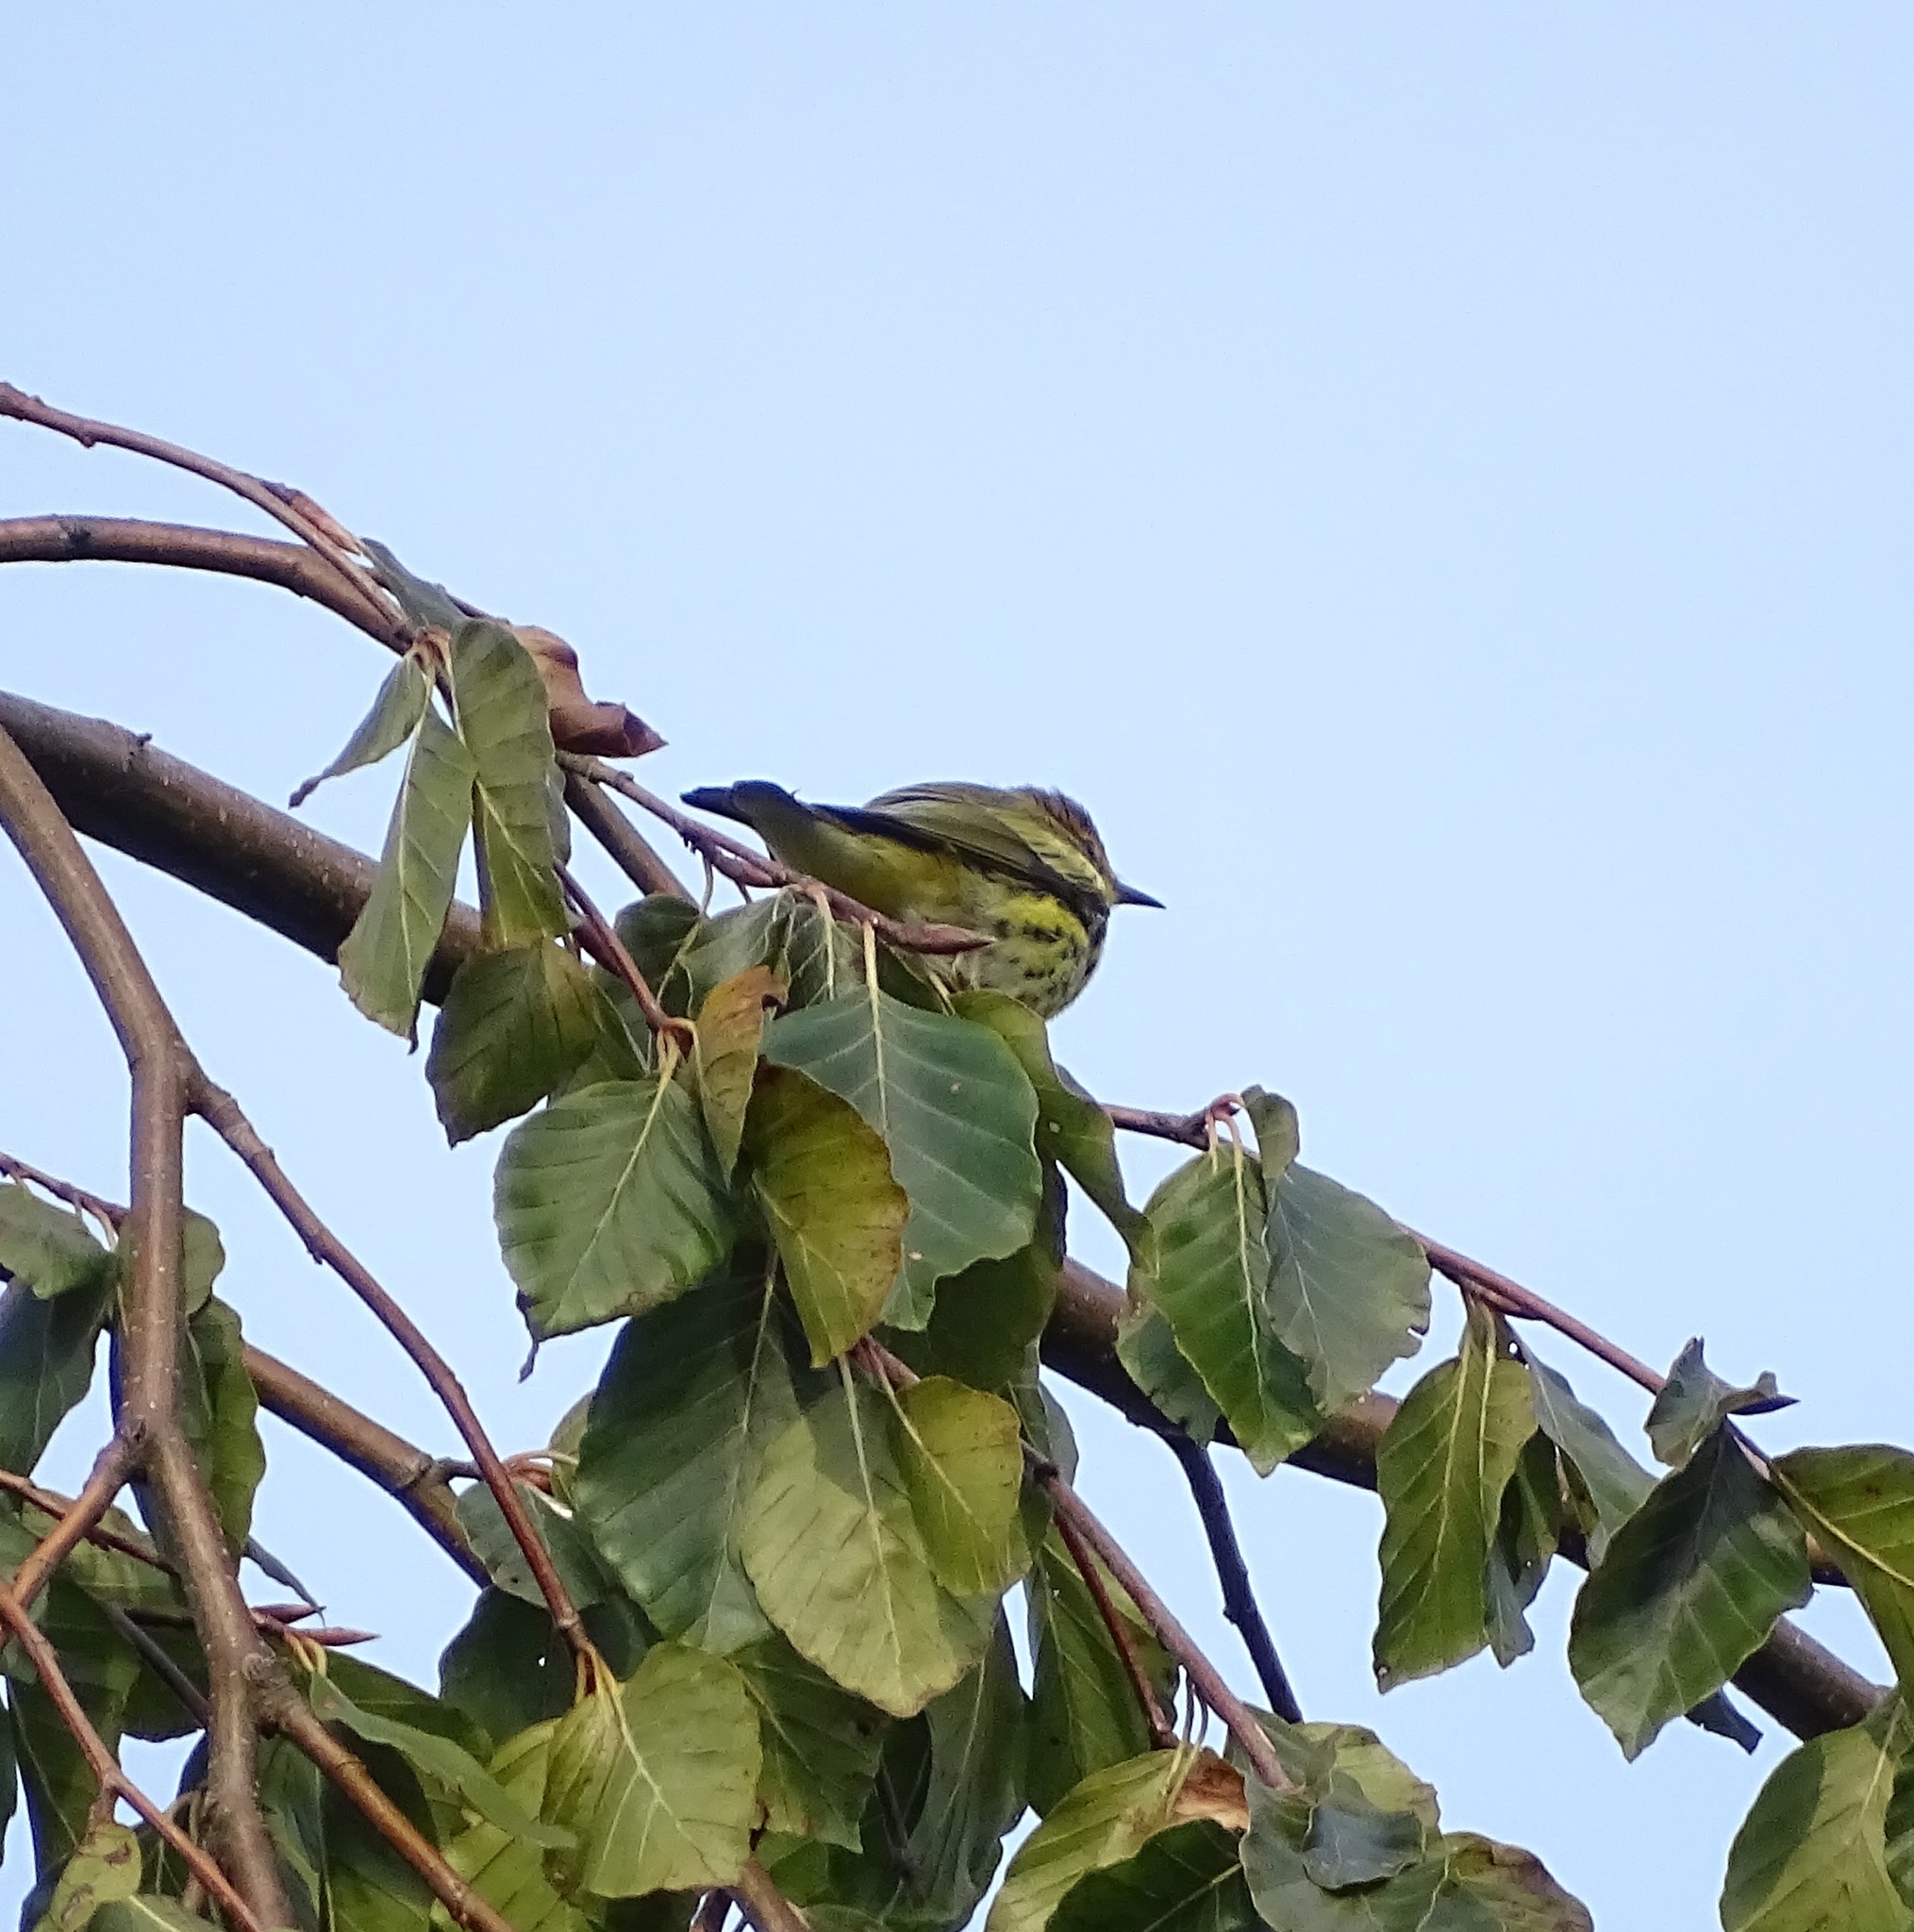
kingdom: Animalia
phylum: Chordata
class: Aves
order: Passeriformes
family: Parulidae
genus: Setophaga
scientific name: Setophaga tigrina
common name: Cape may warbler
